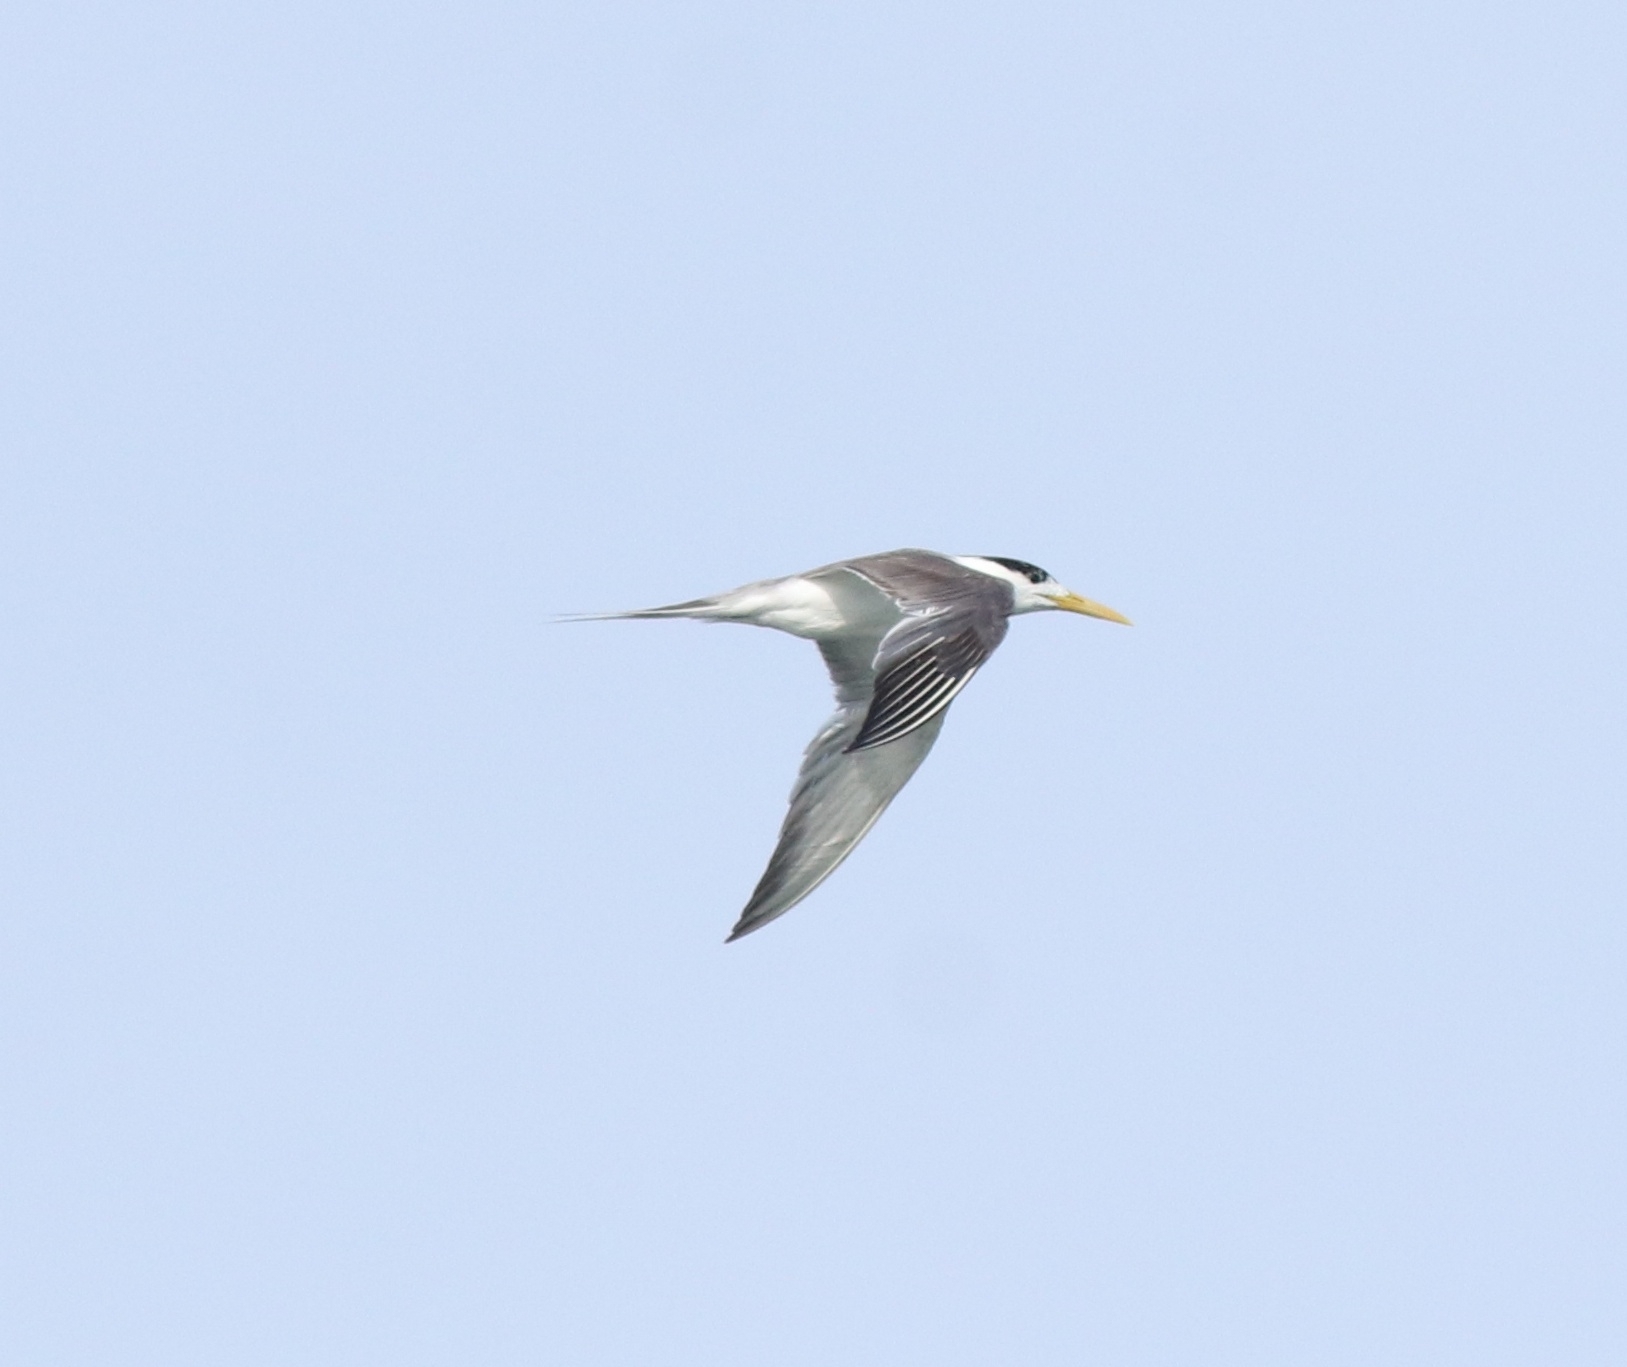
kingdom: Animalia
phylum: Chordata
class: Aves
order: Charadriiformes
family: Laridae
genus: Thalasseus
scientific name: Thalasseus bergii
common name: Greater crested tern
